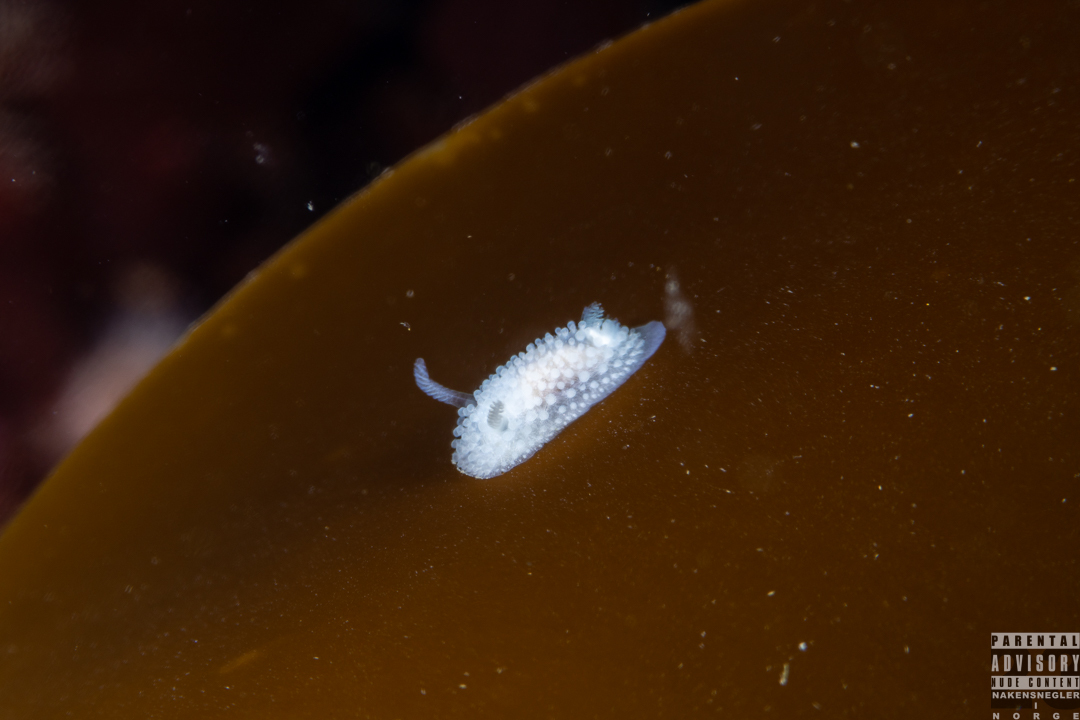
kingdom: Animalia
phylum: Mollusca
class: Gastropoda
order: Nudibranchia
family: Onchidorididae
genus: Onchidoris
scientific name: Onchidoris muricata
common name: Rough doris
